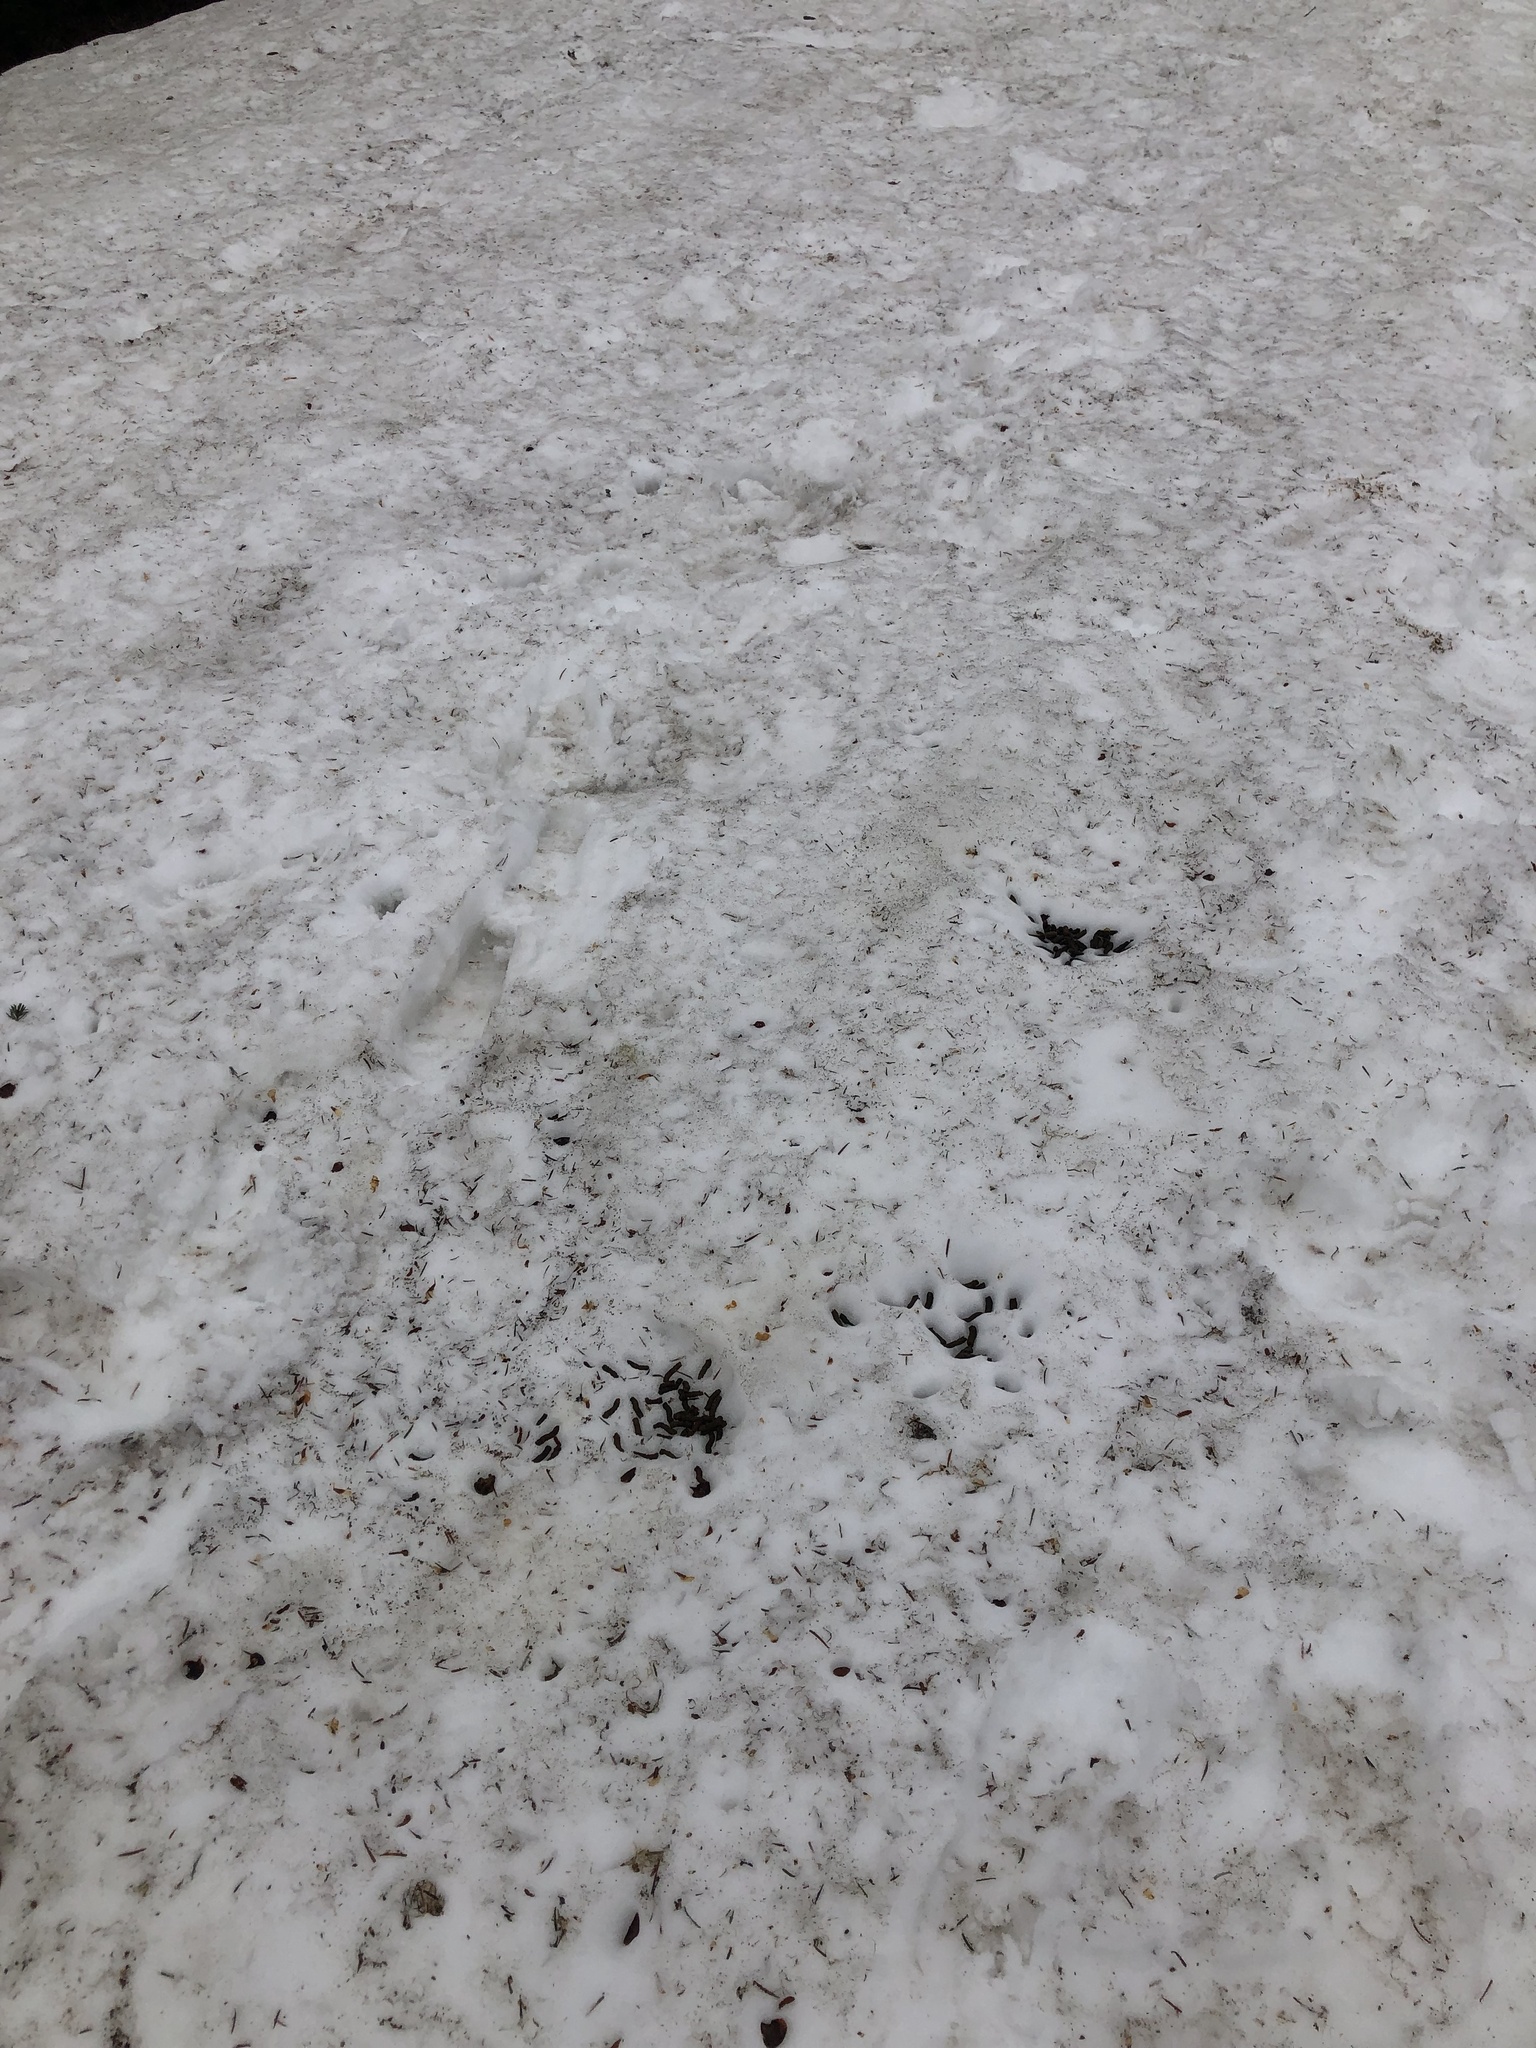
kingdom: Animalia
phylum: Chordata
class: Aves
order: Galliformes
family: Phasianidae
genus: Bonasa
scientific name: Bonasa umbellus
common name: Ruffed grouse
